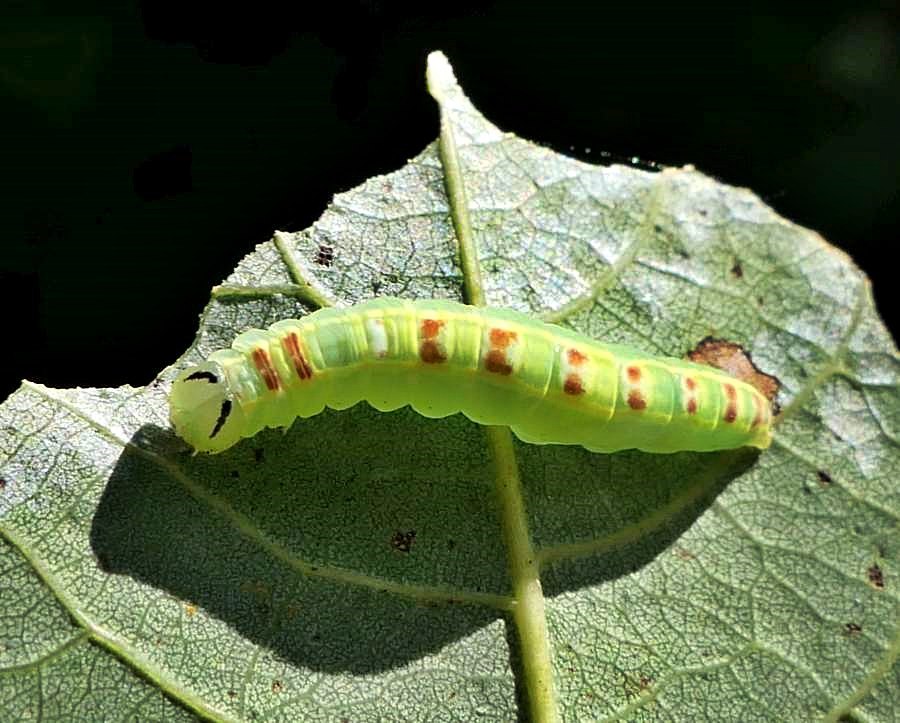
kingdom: Animalia
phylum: Arthropoda
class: Insecta
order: Lepidoptera
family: Notodontidae
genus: Gluphisia
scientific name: Gluphisia septentrionis
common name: Common gluphisia
